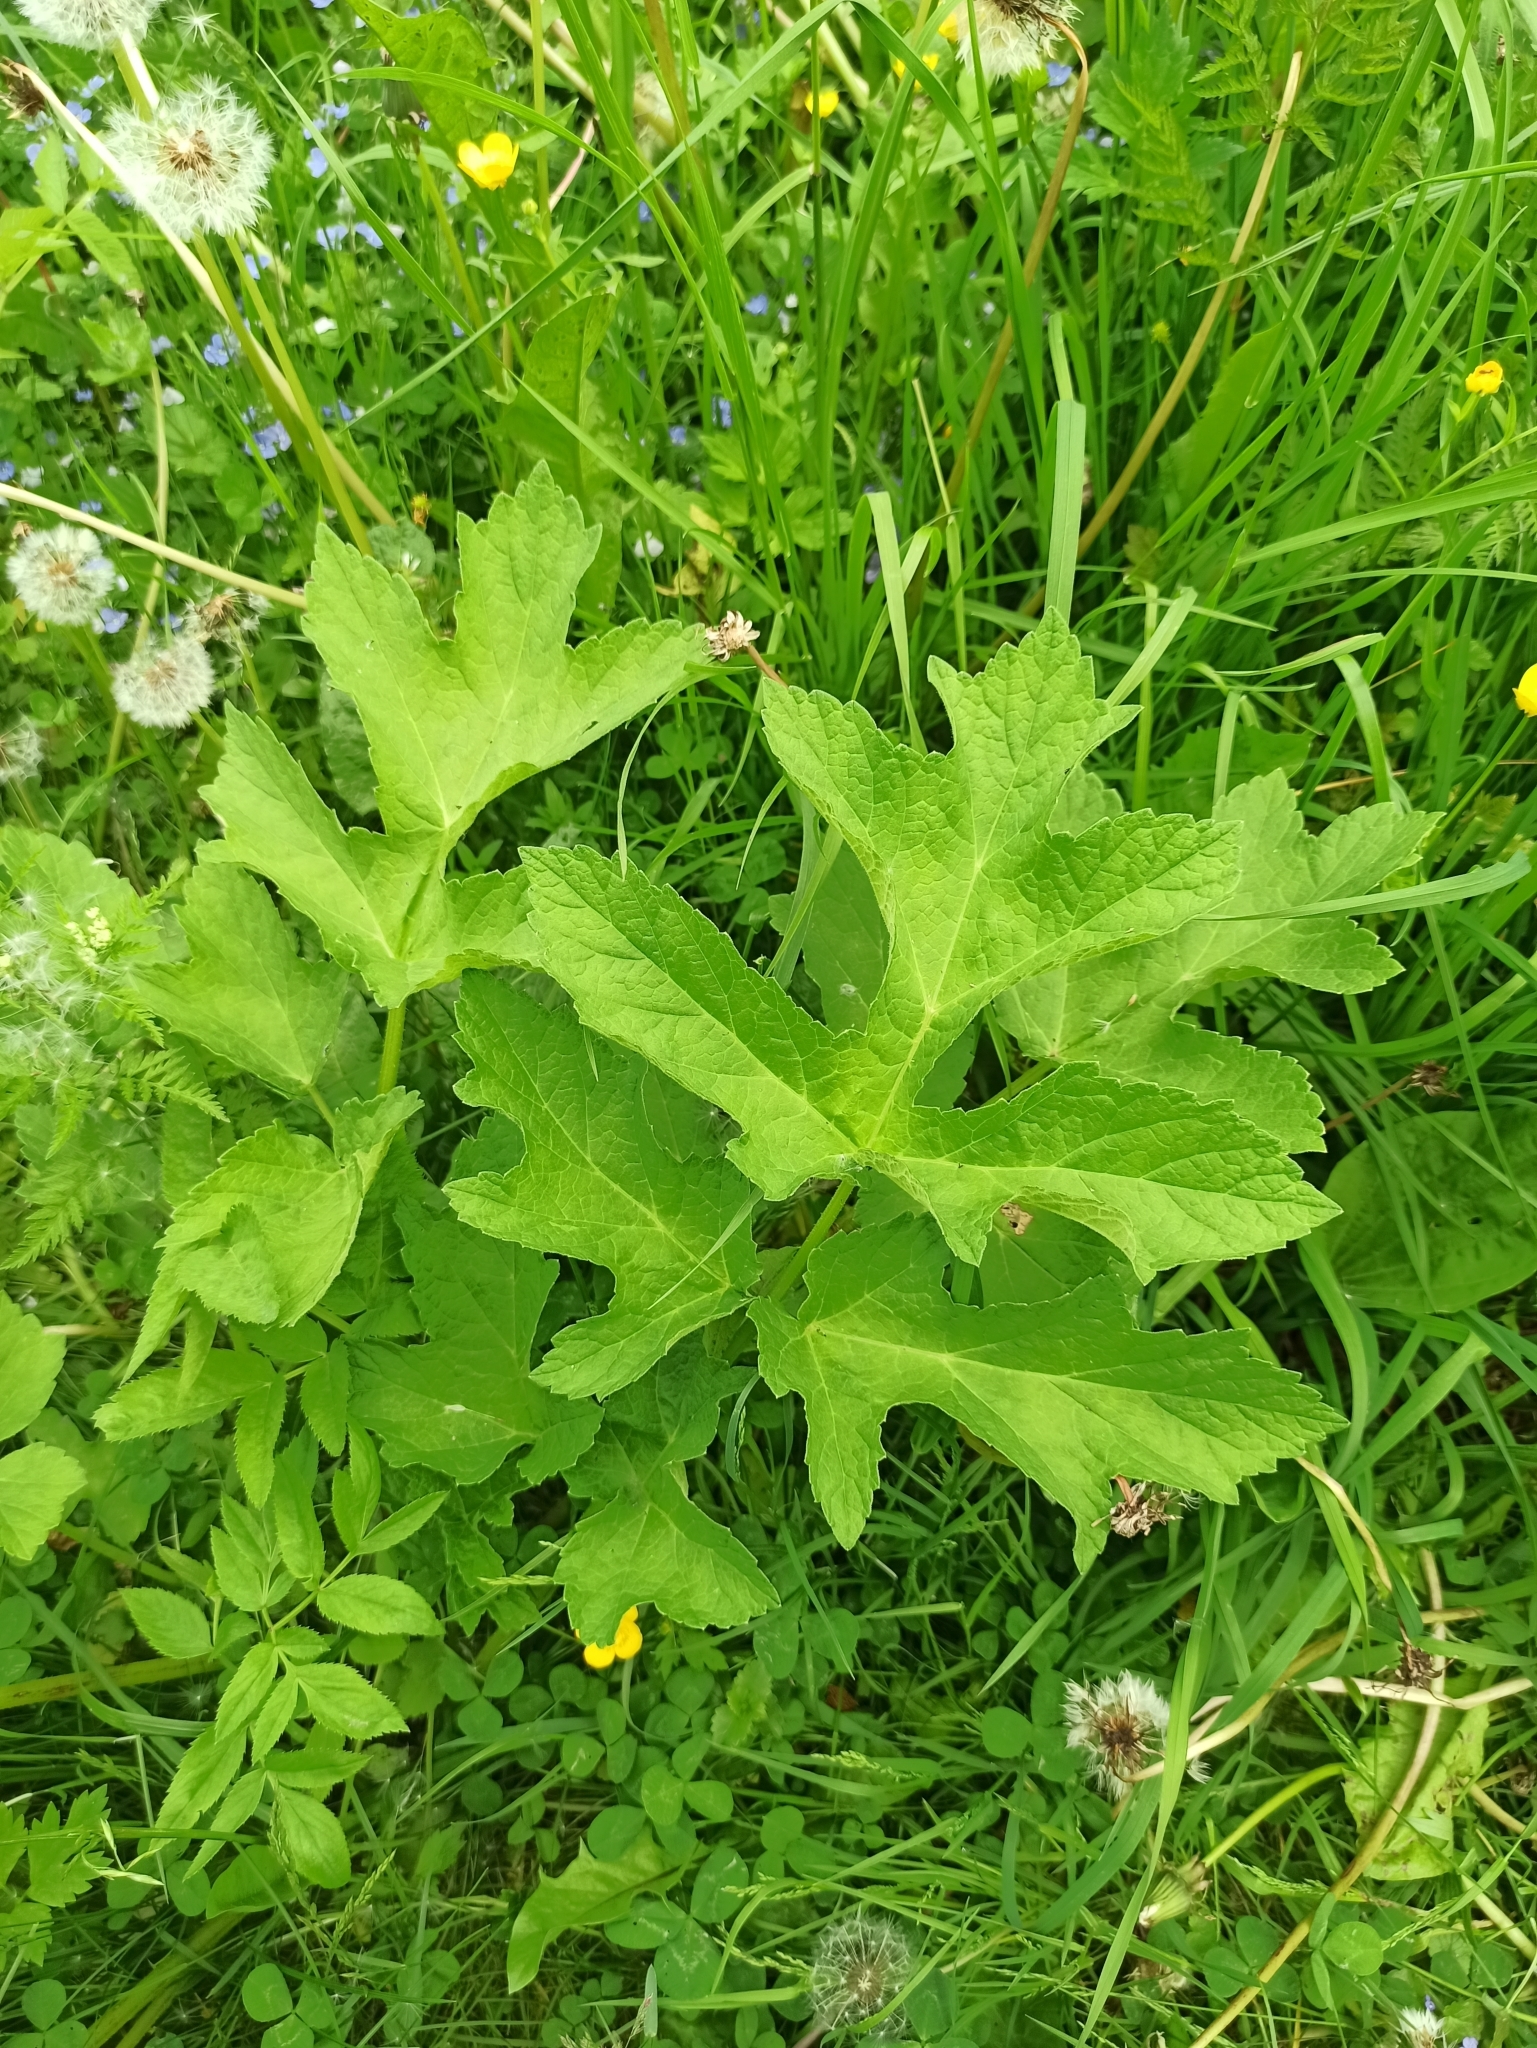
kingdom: Plantae
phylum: Tracheophyta
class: Magnoliopsida
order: Apiales
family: Apiaceae
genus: Heracleum
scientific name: Heracleum sphondylium
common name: Hogweed
